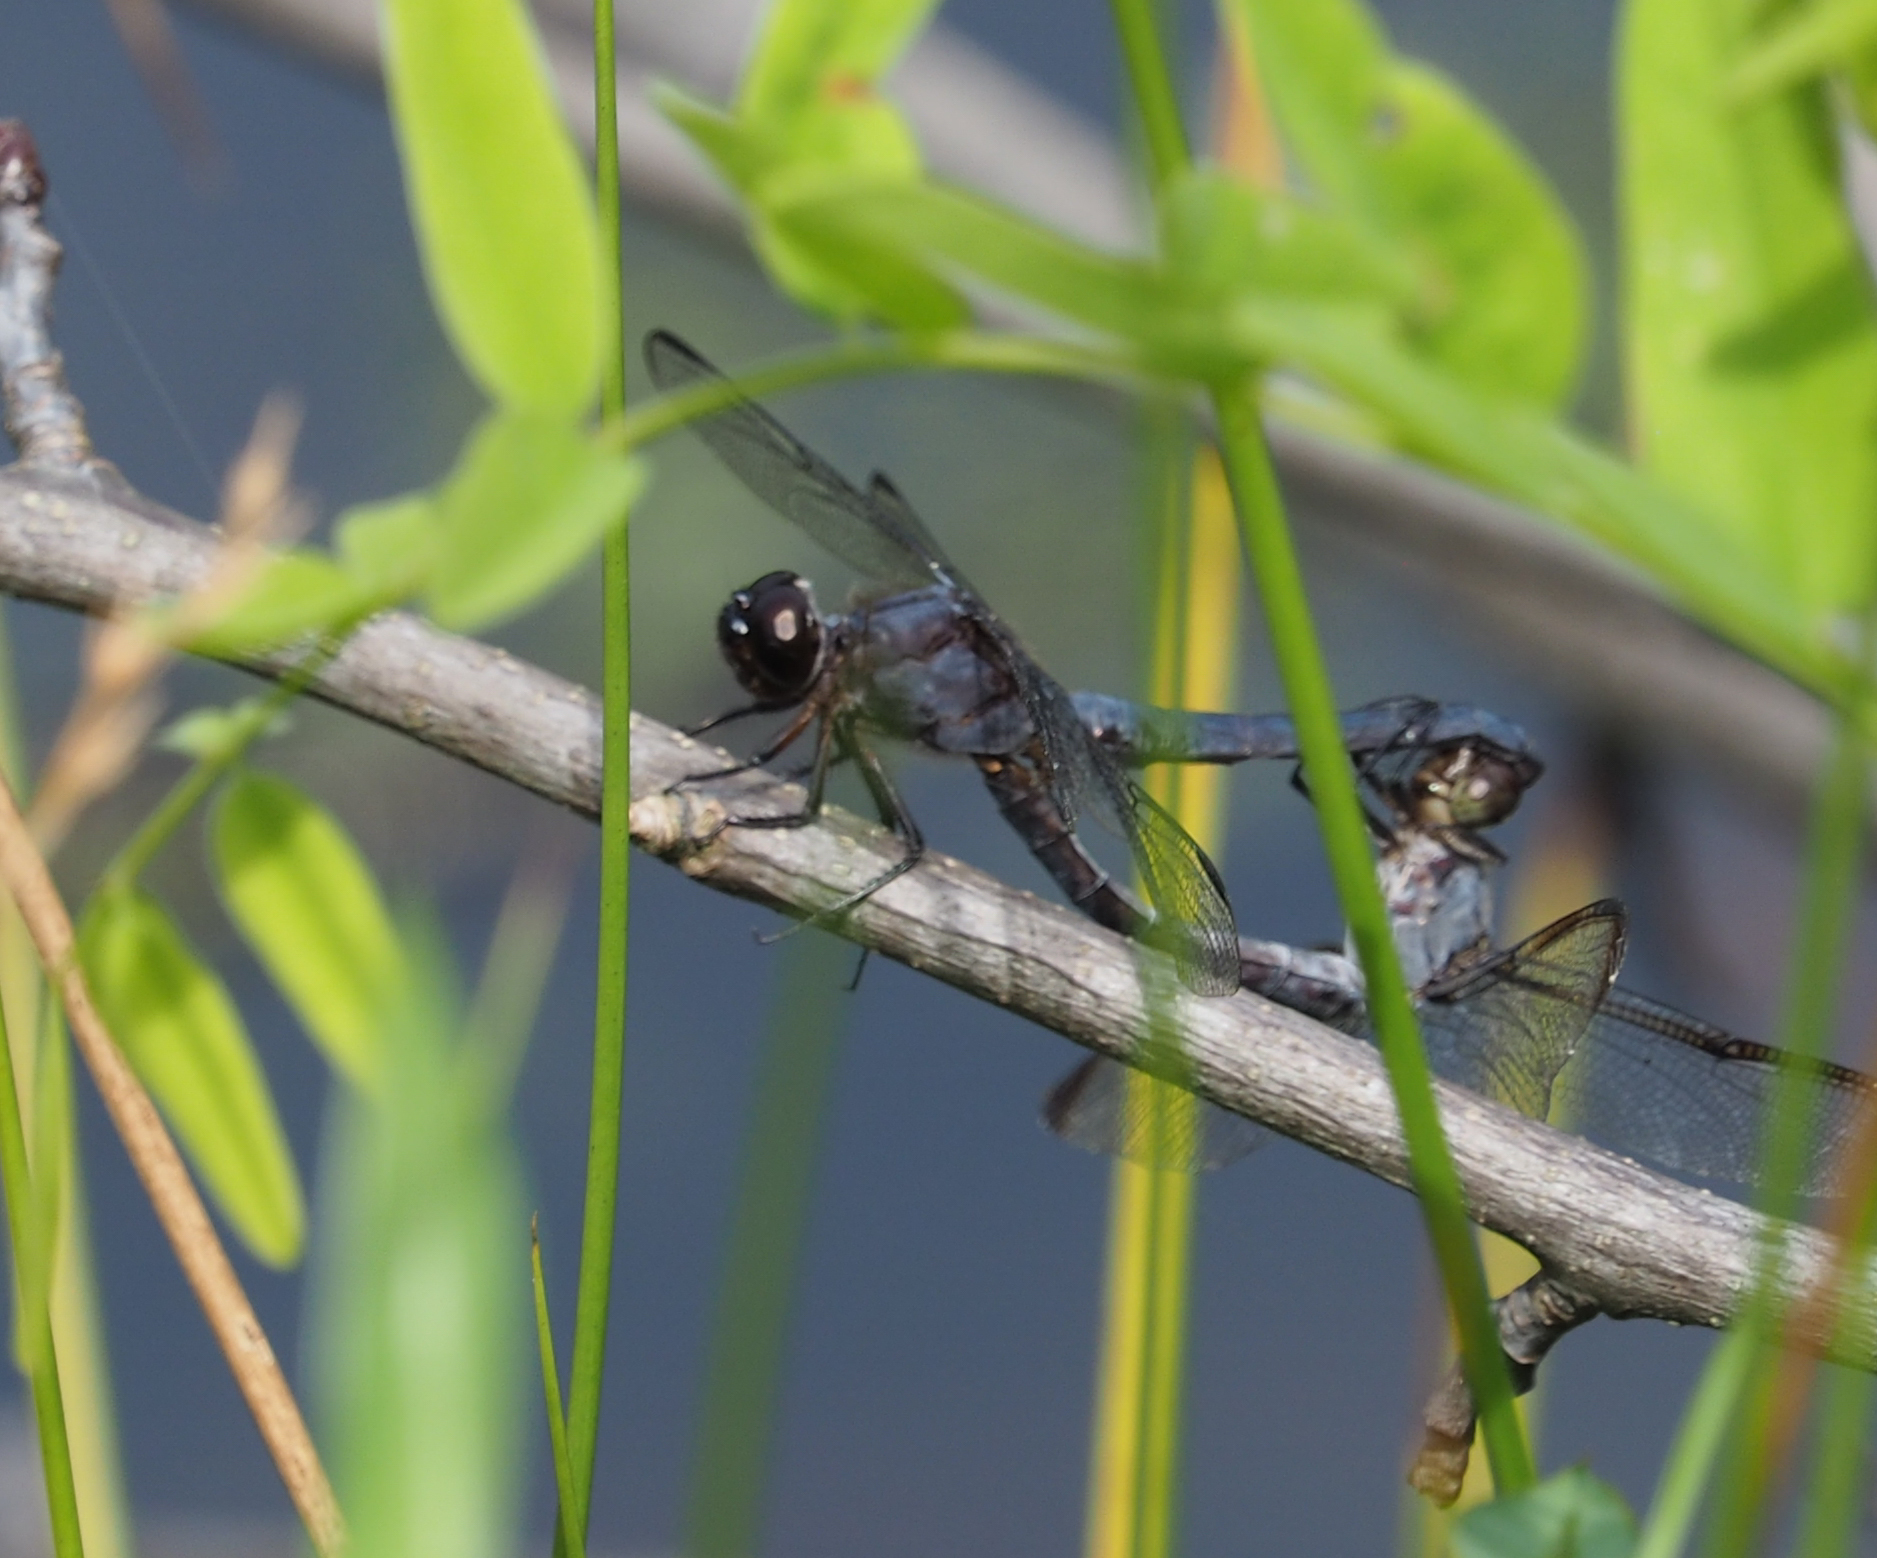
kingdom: Animalia
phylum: Arthropoda
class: Insecta
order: Odonata
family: Libellulidae
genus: Libellula
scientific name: Libellula incesta
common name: Slaty skimmer
